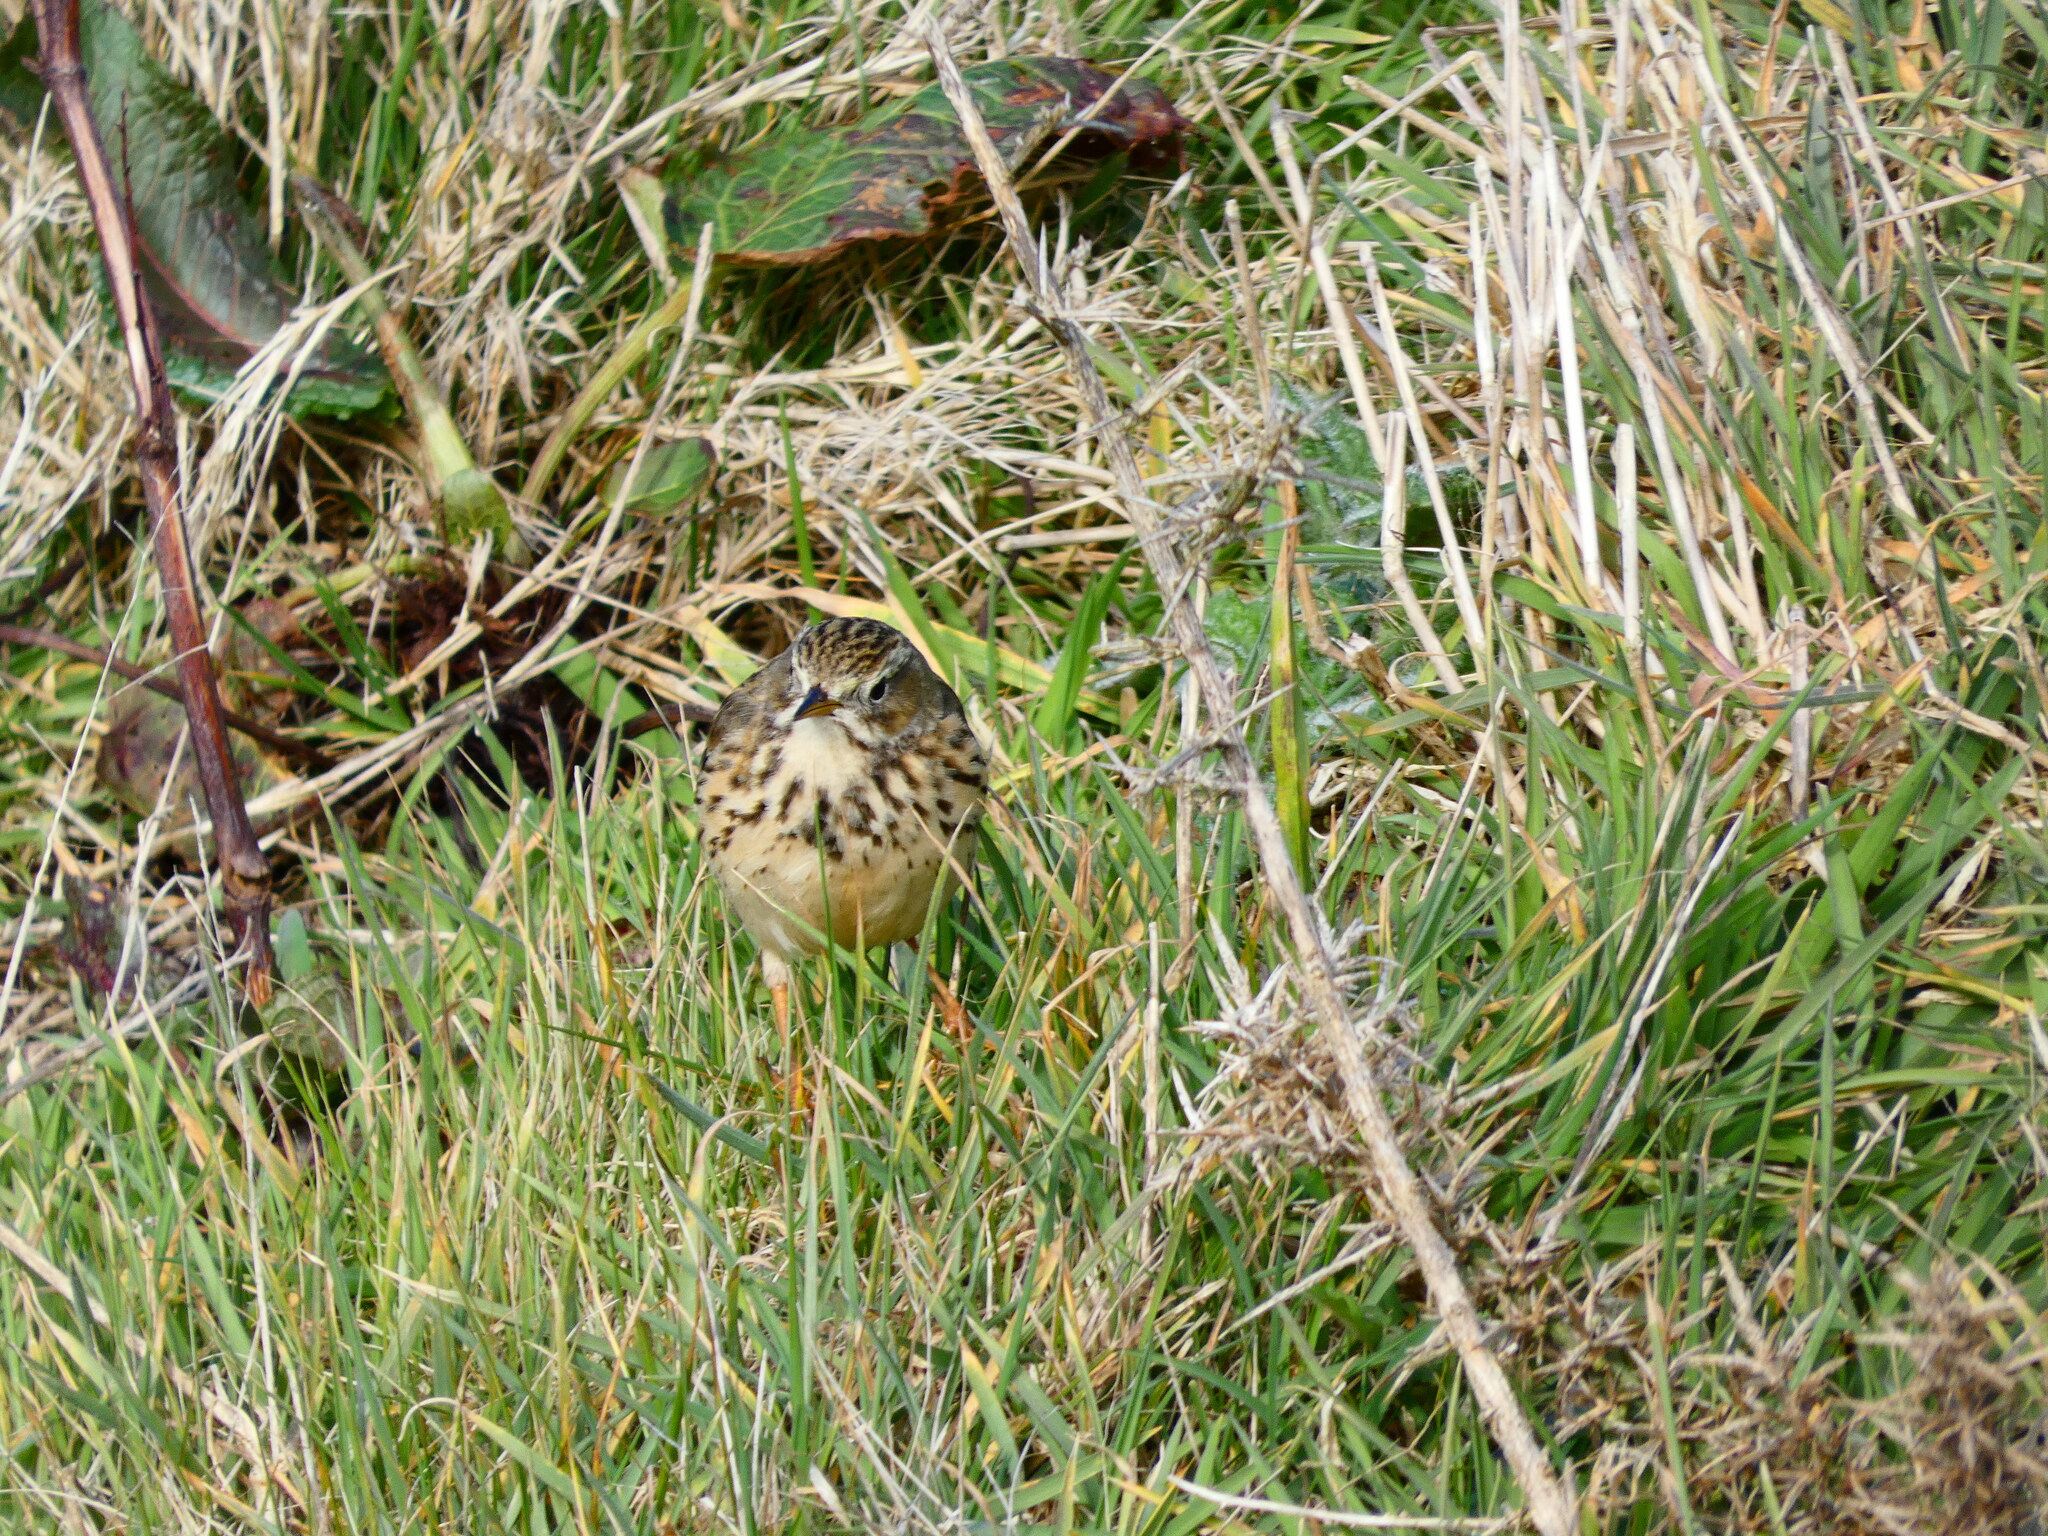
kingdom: Animalia
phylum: Chordata
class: Aves
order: Passeriformes
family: Motacillidae
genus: Anthus
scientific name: Anthus pratensis
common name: Meadow pipit
